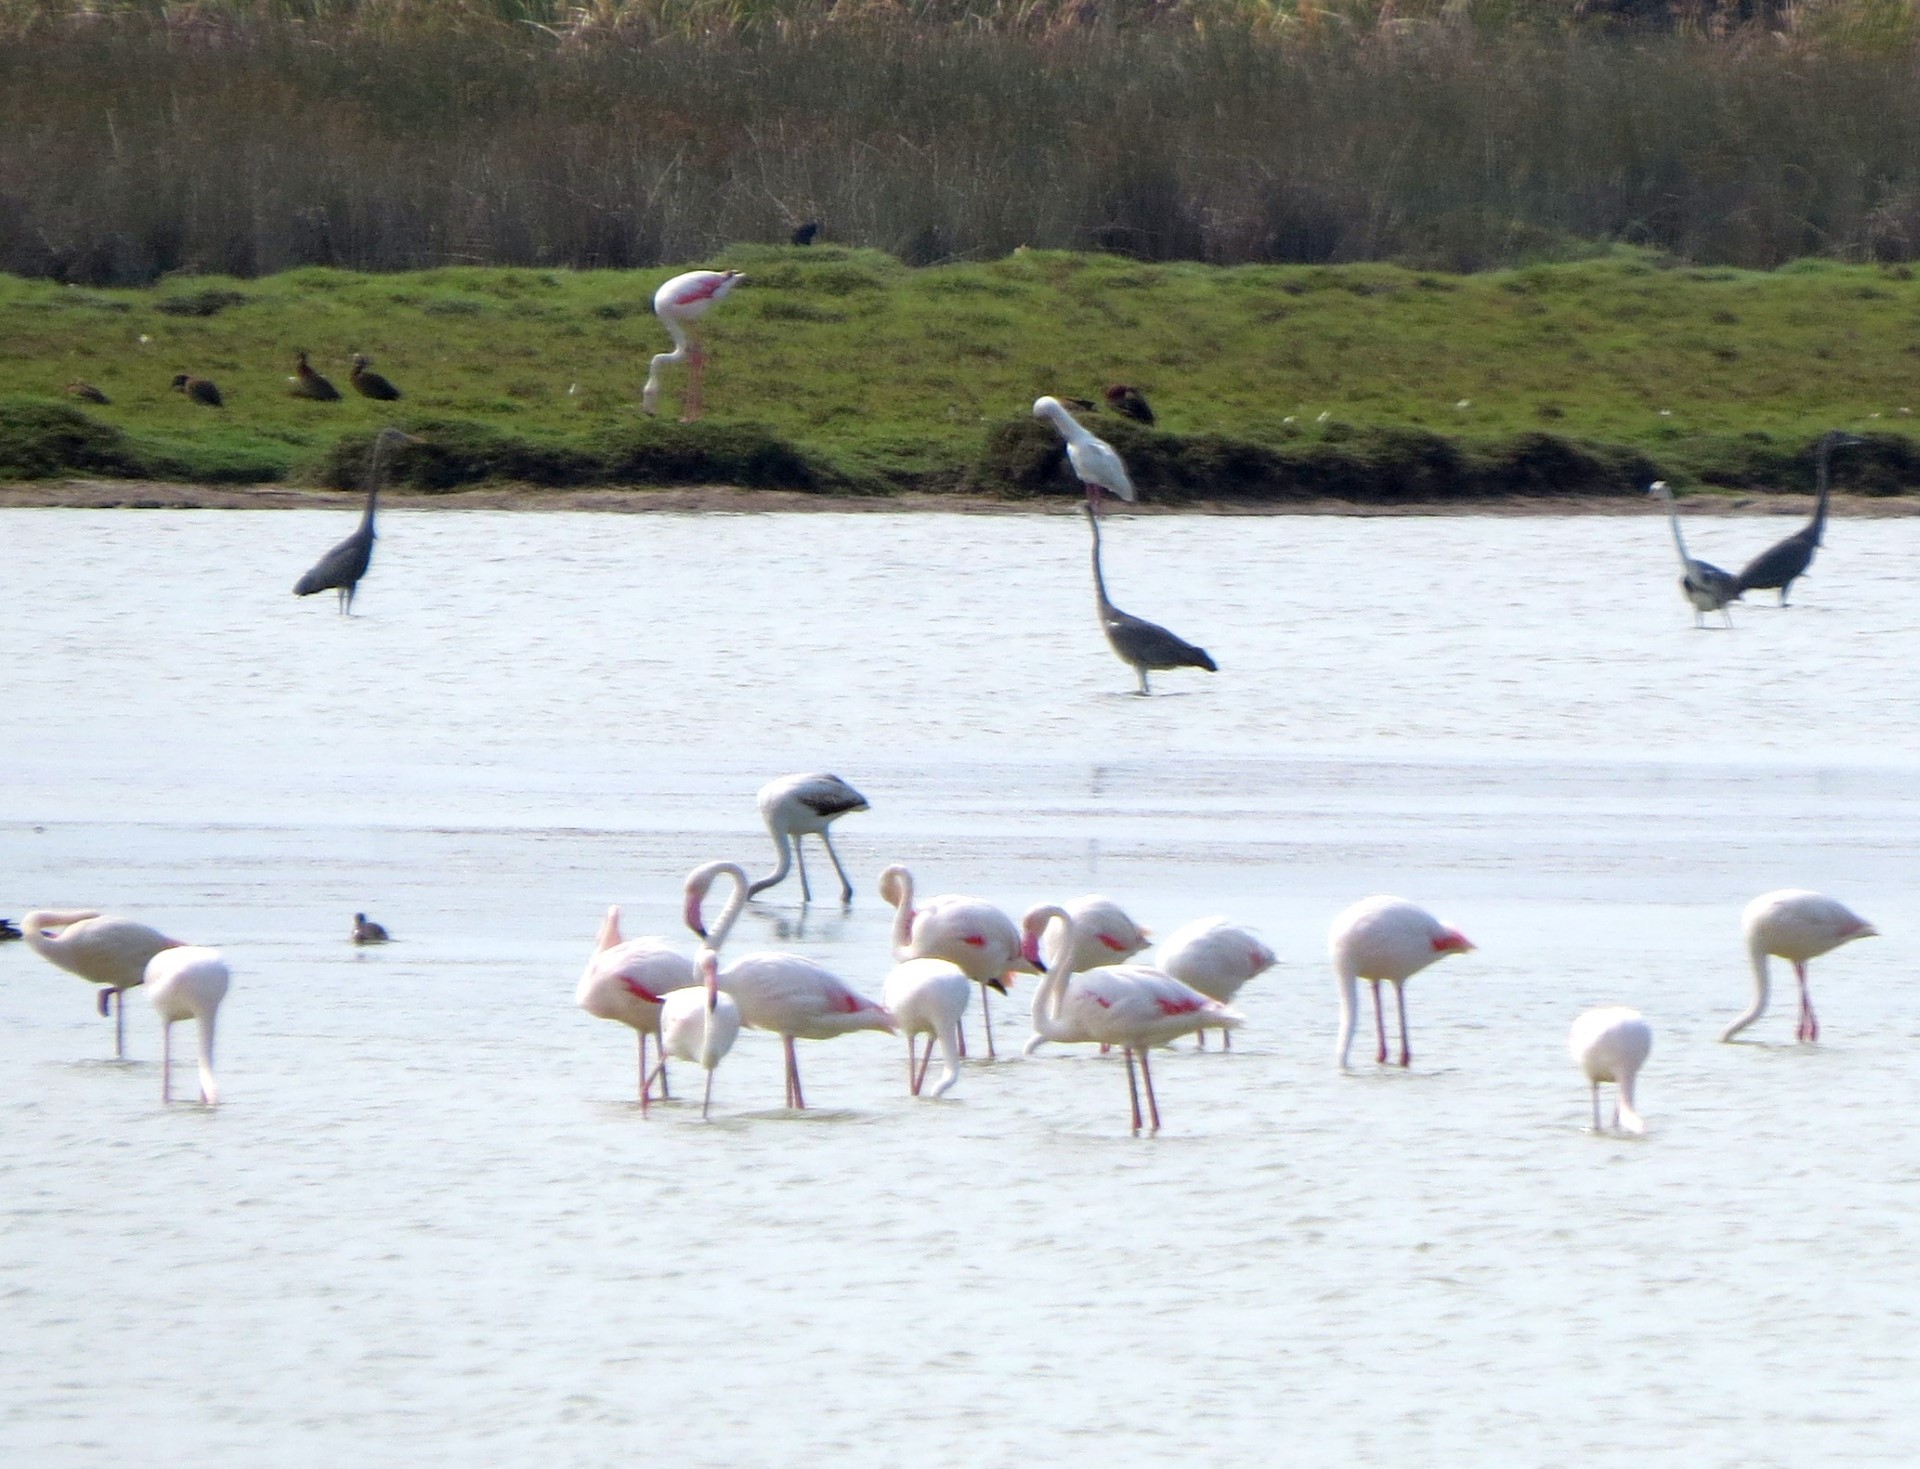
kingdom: Animalia
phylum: Chordata
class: Aves
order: Phoenicopteriformes
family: Phoenicopteridae
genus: Phoenicopterus
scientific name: Phoenicopterus roseus
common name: Greater flamingo
